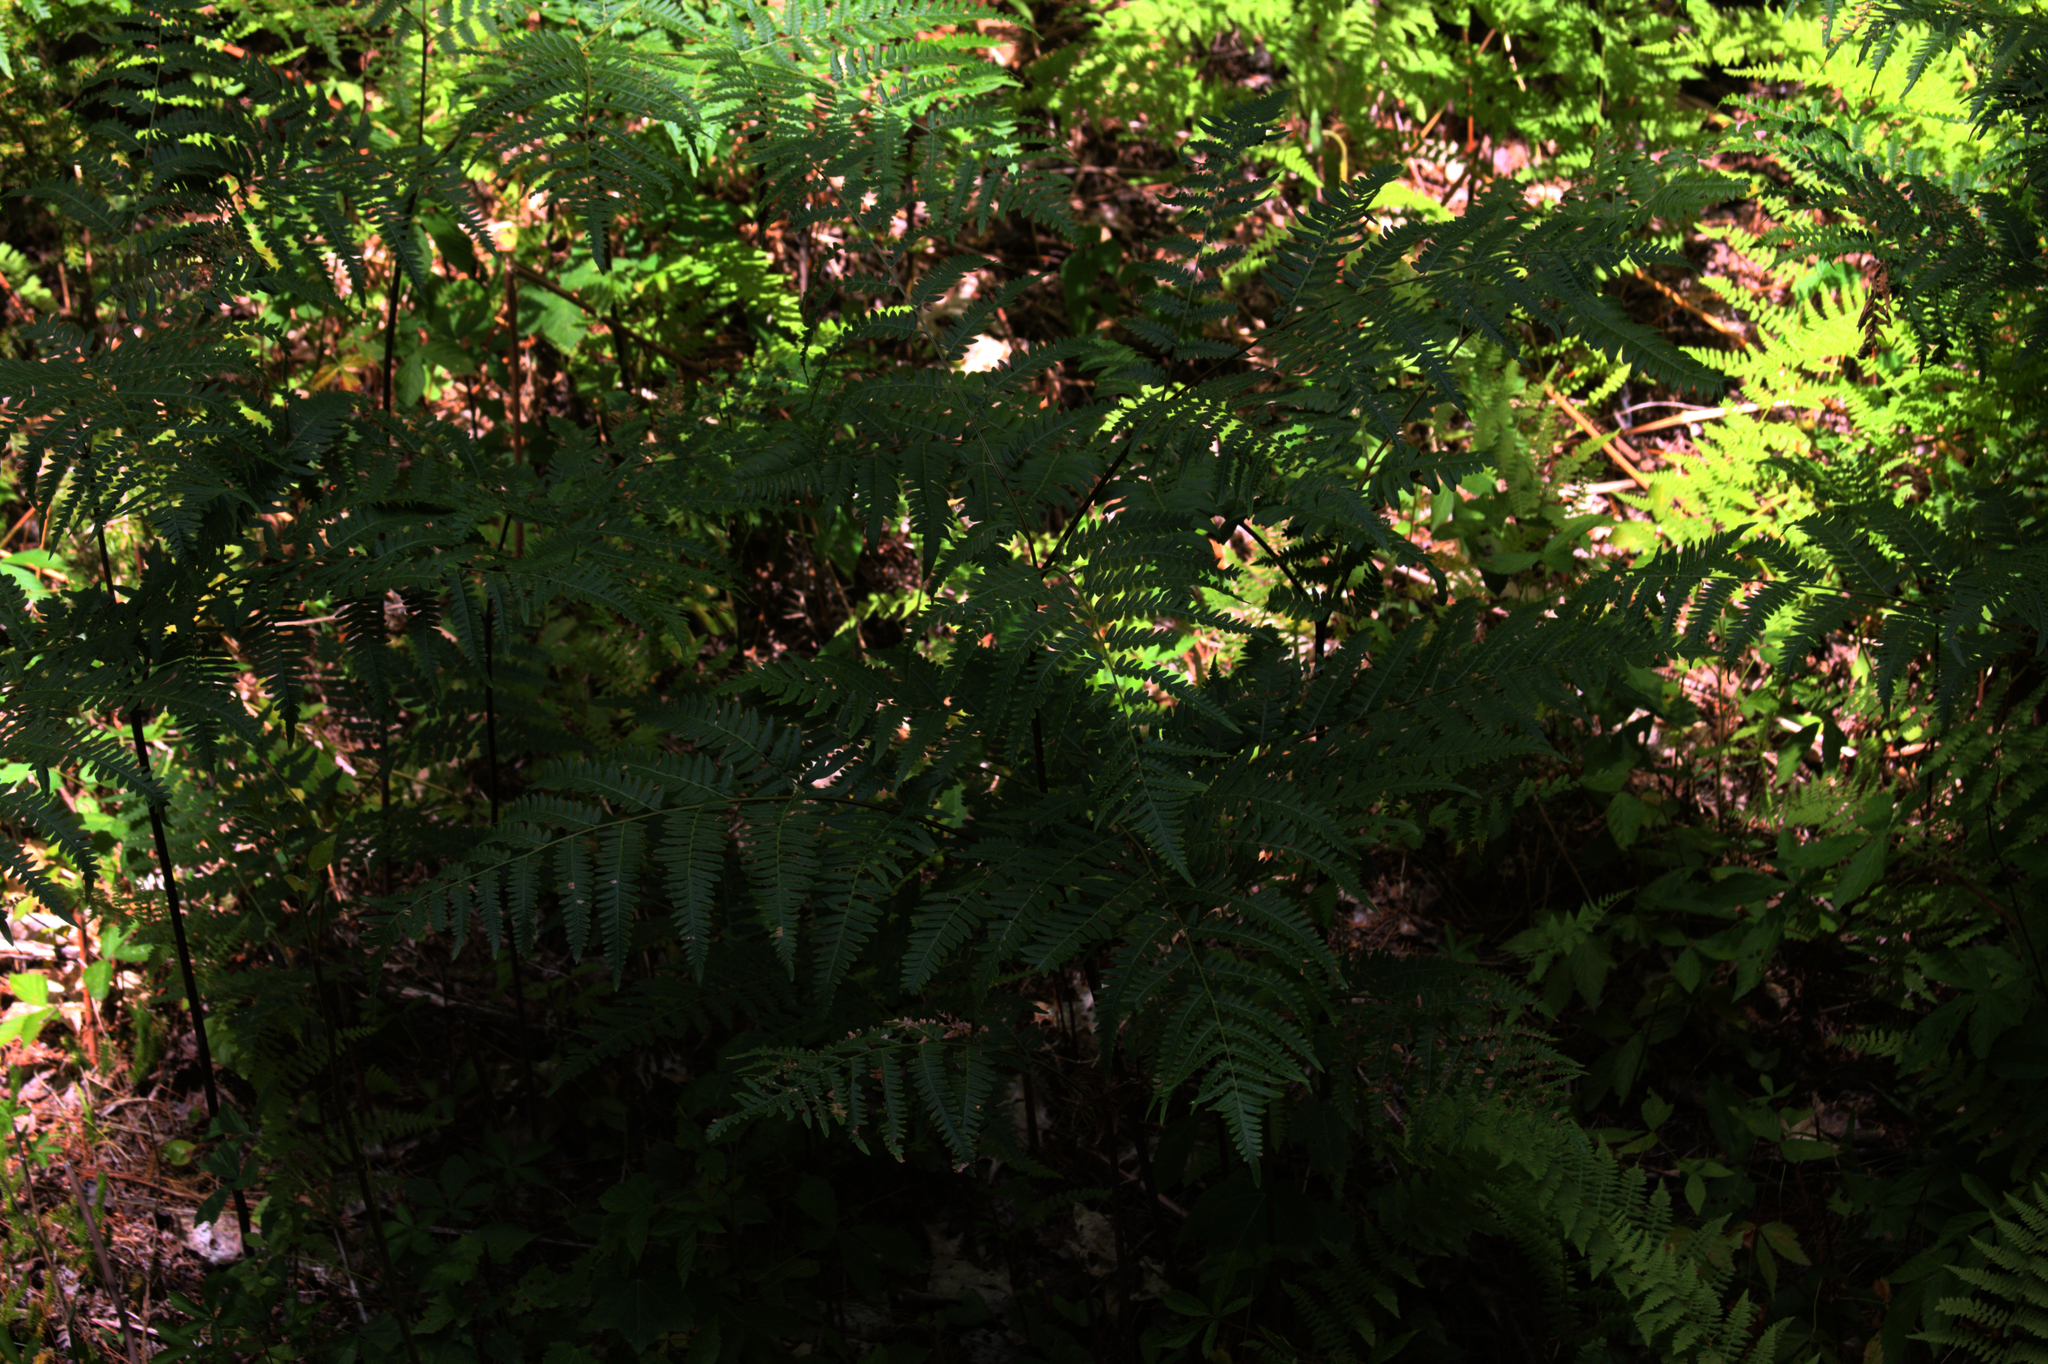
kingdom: Plantae
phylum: Tracheophyta
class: Polypodiopsida
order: Polypodiales
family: Dennstaedtiaceae
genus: Pteridium
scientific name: Pteridium aquilinum
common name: Bracken
